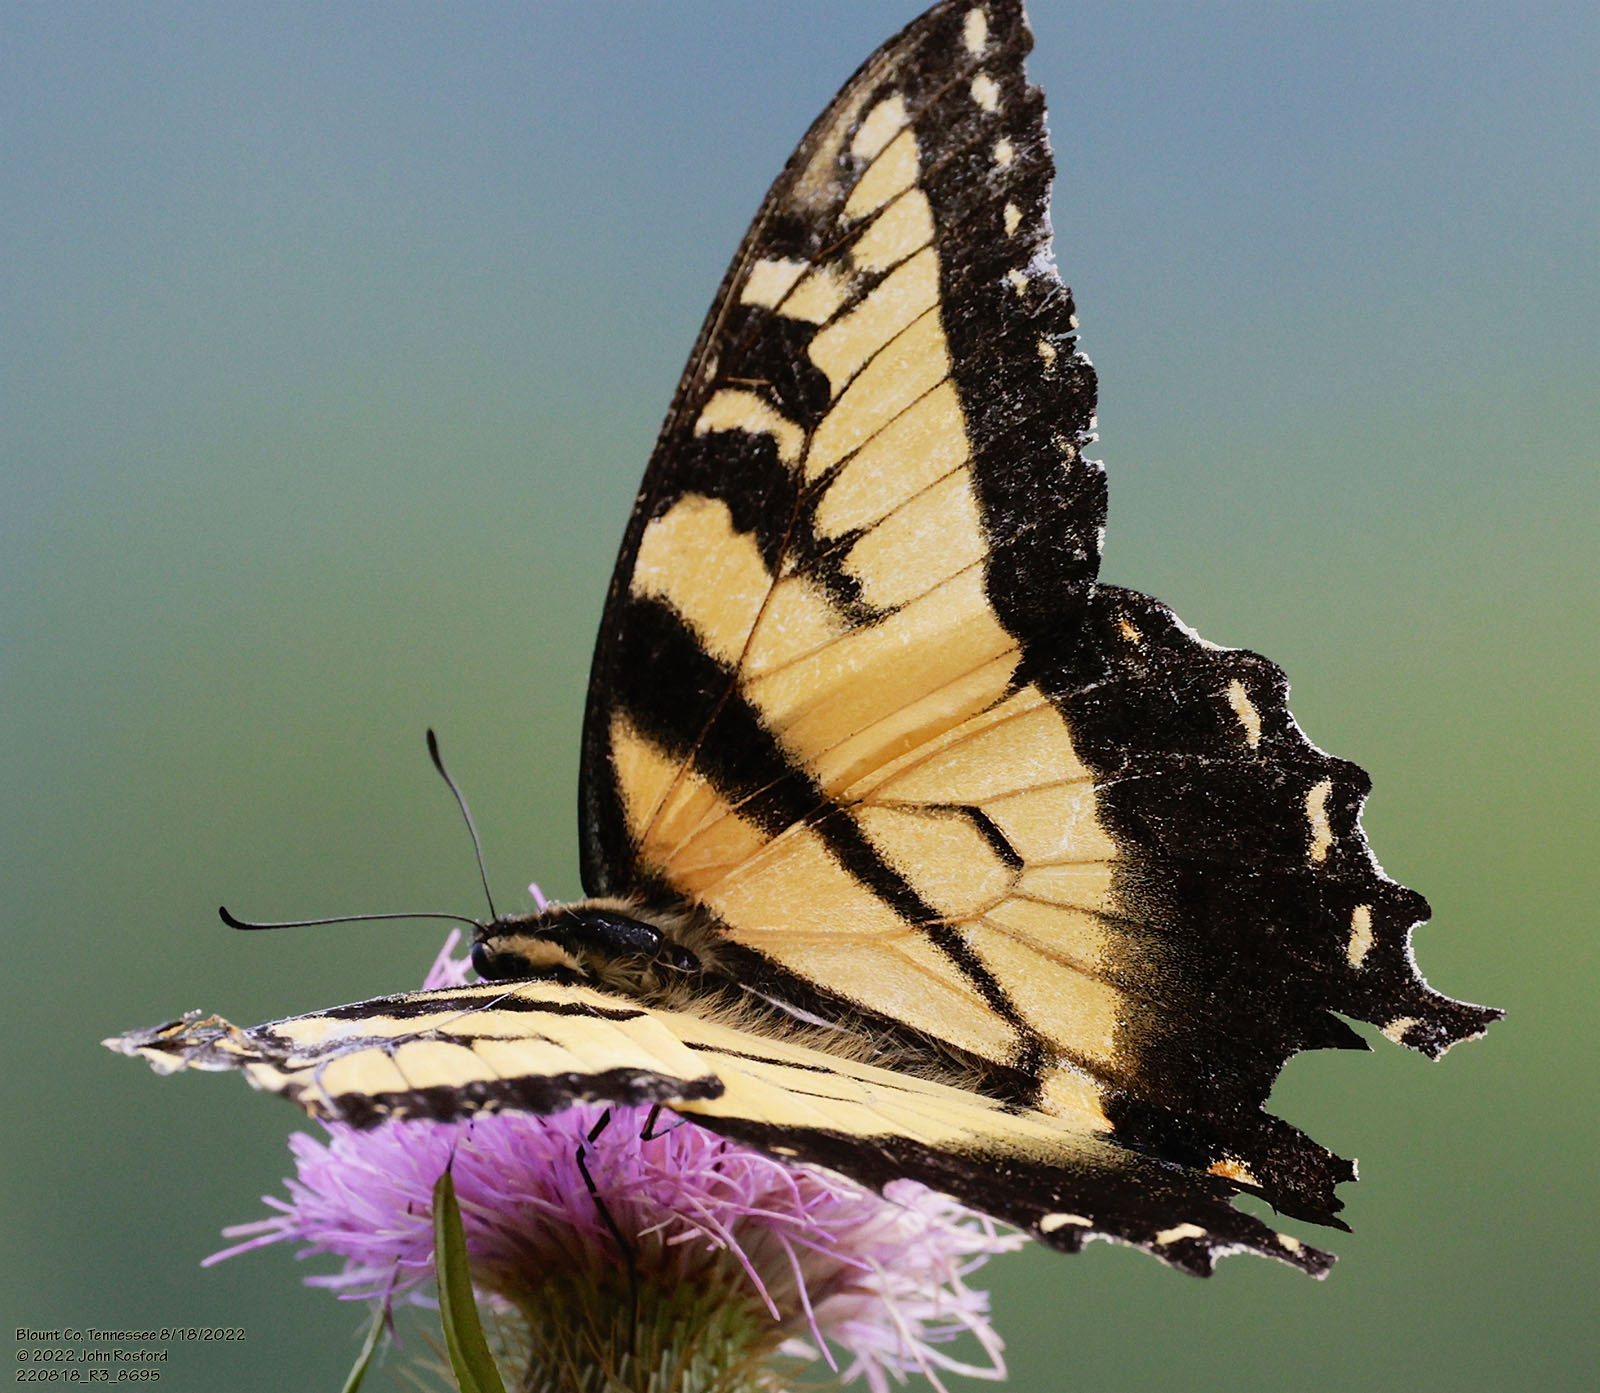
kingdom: Animalia
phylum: Arthropoda
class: Insecta
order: Lepidoptera
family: Papilionidae
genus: Papilio
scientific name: Papilio glaucus
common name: Tiger swallowtail
